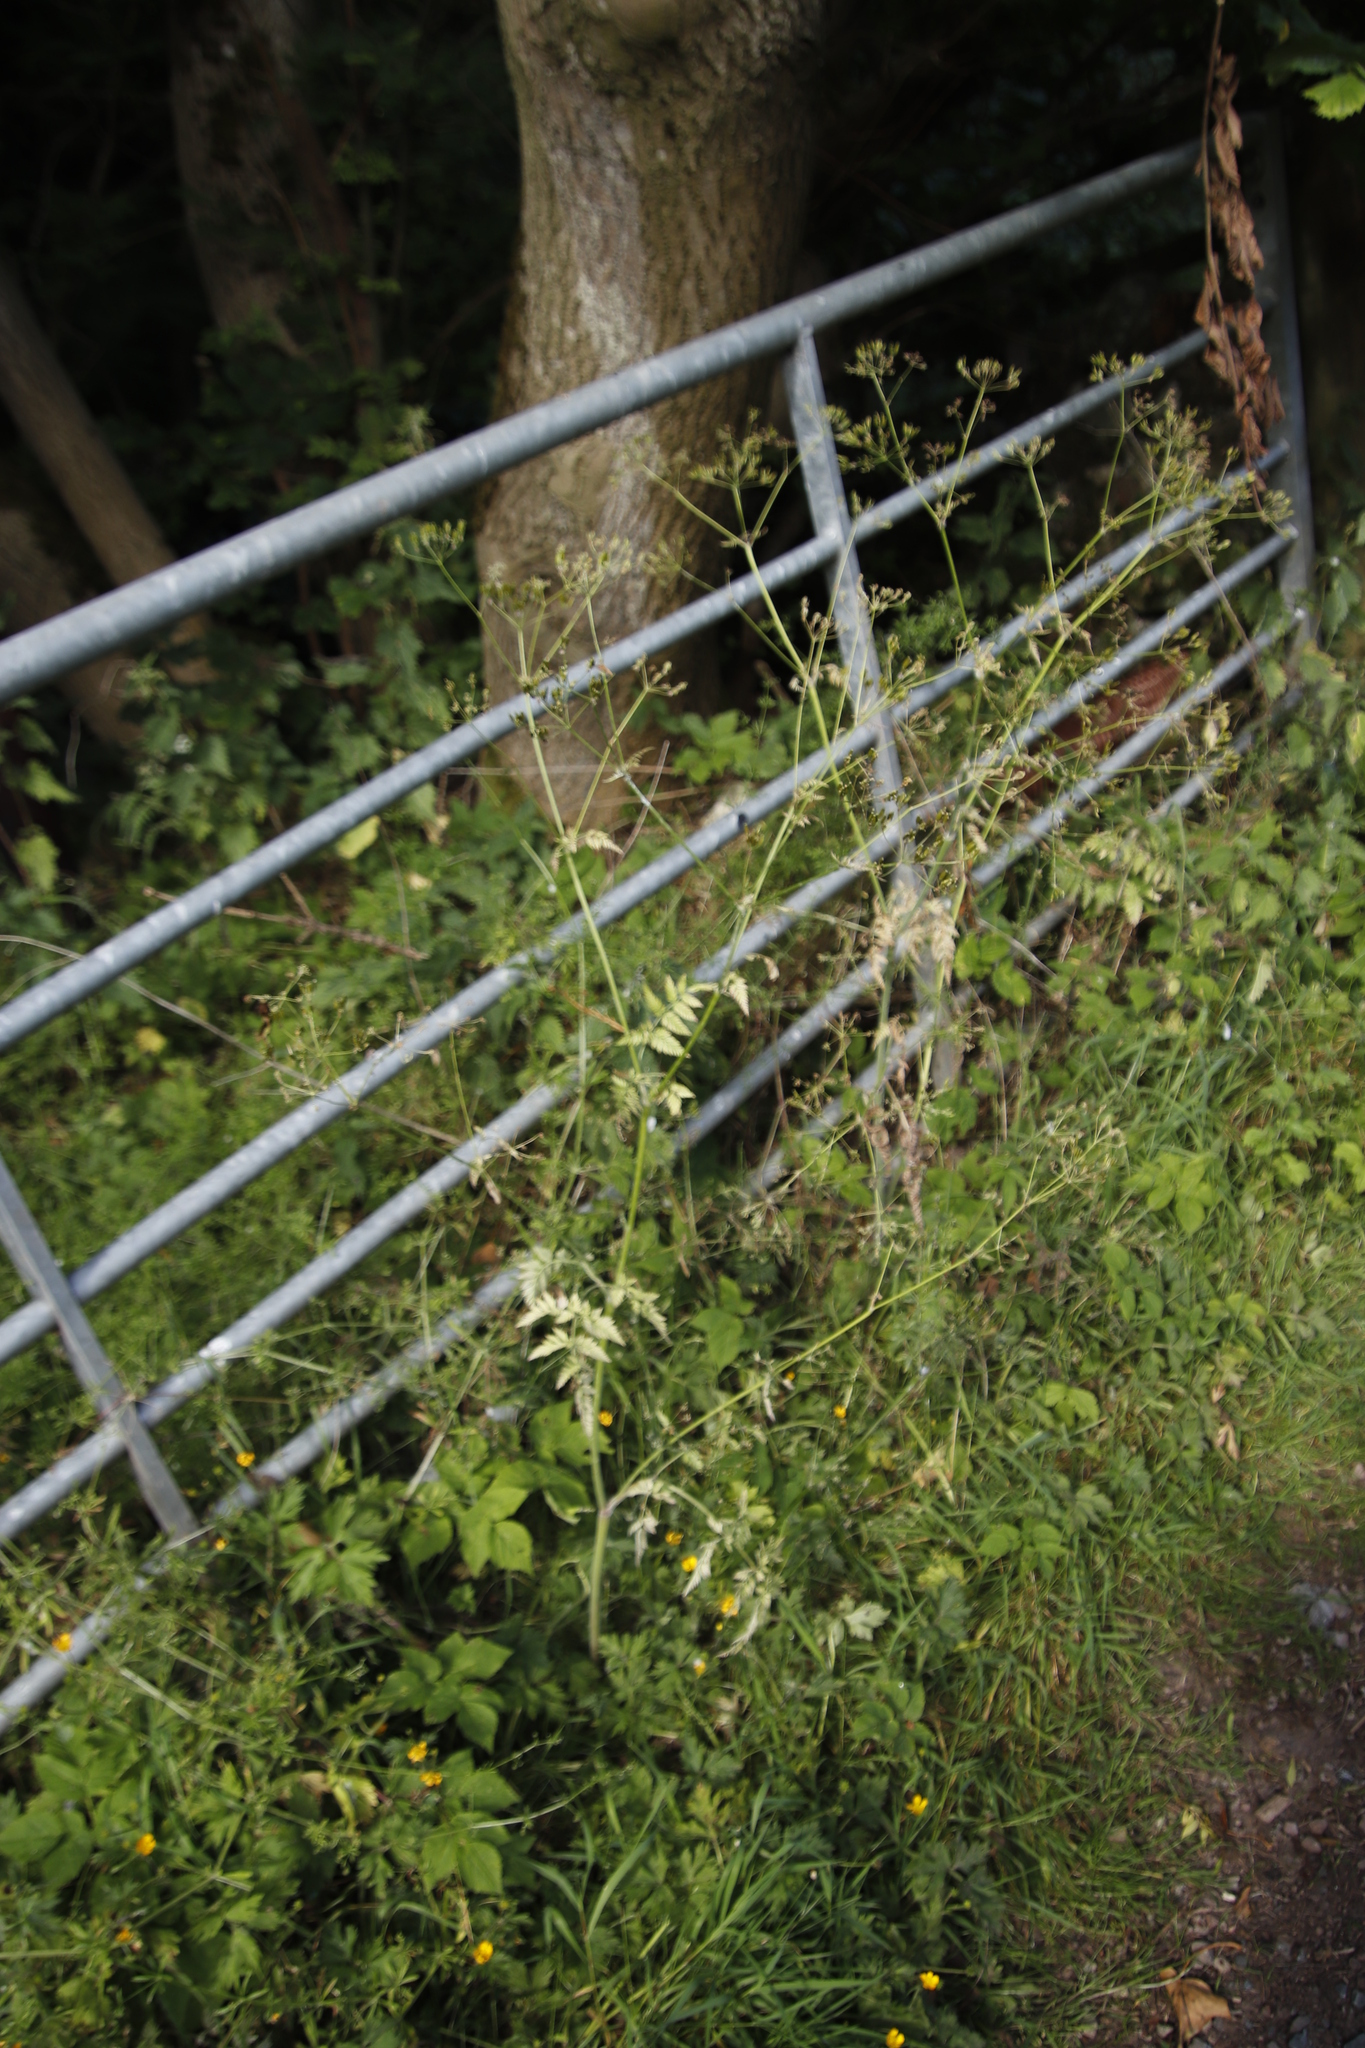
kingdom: Plantae
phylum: Tracheophyta
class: Magnoliopsida
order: Apiales
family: Apiaceae
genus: Anthriscus
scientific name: Anthriscus sylvestris
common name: Cow parsley
